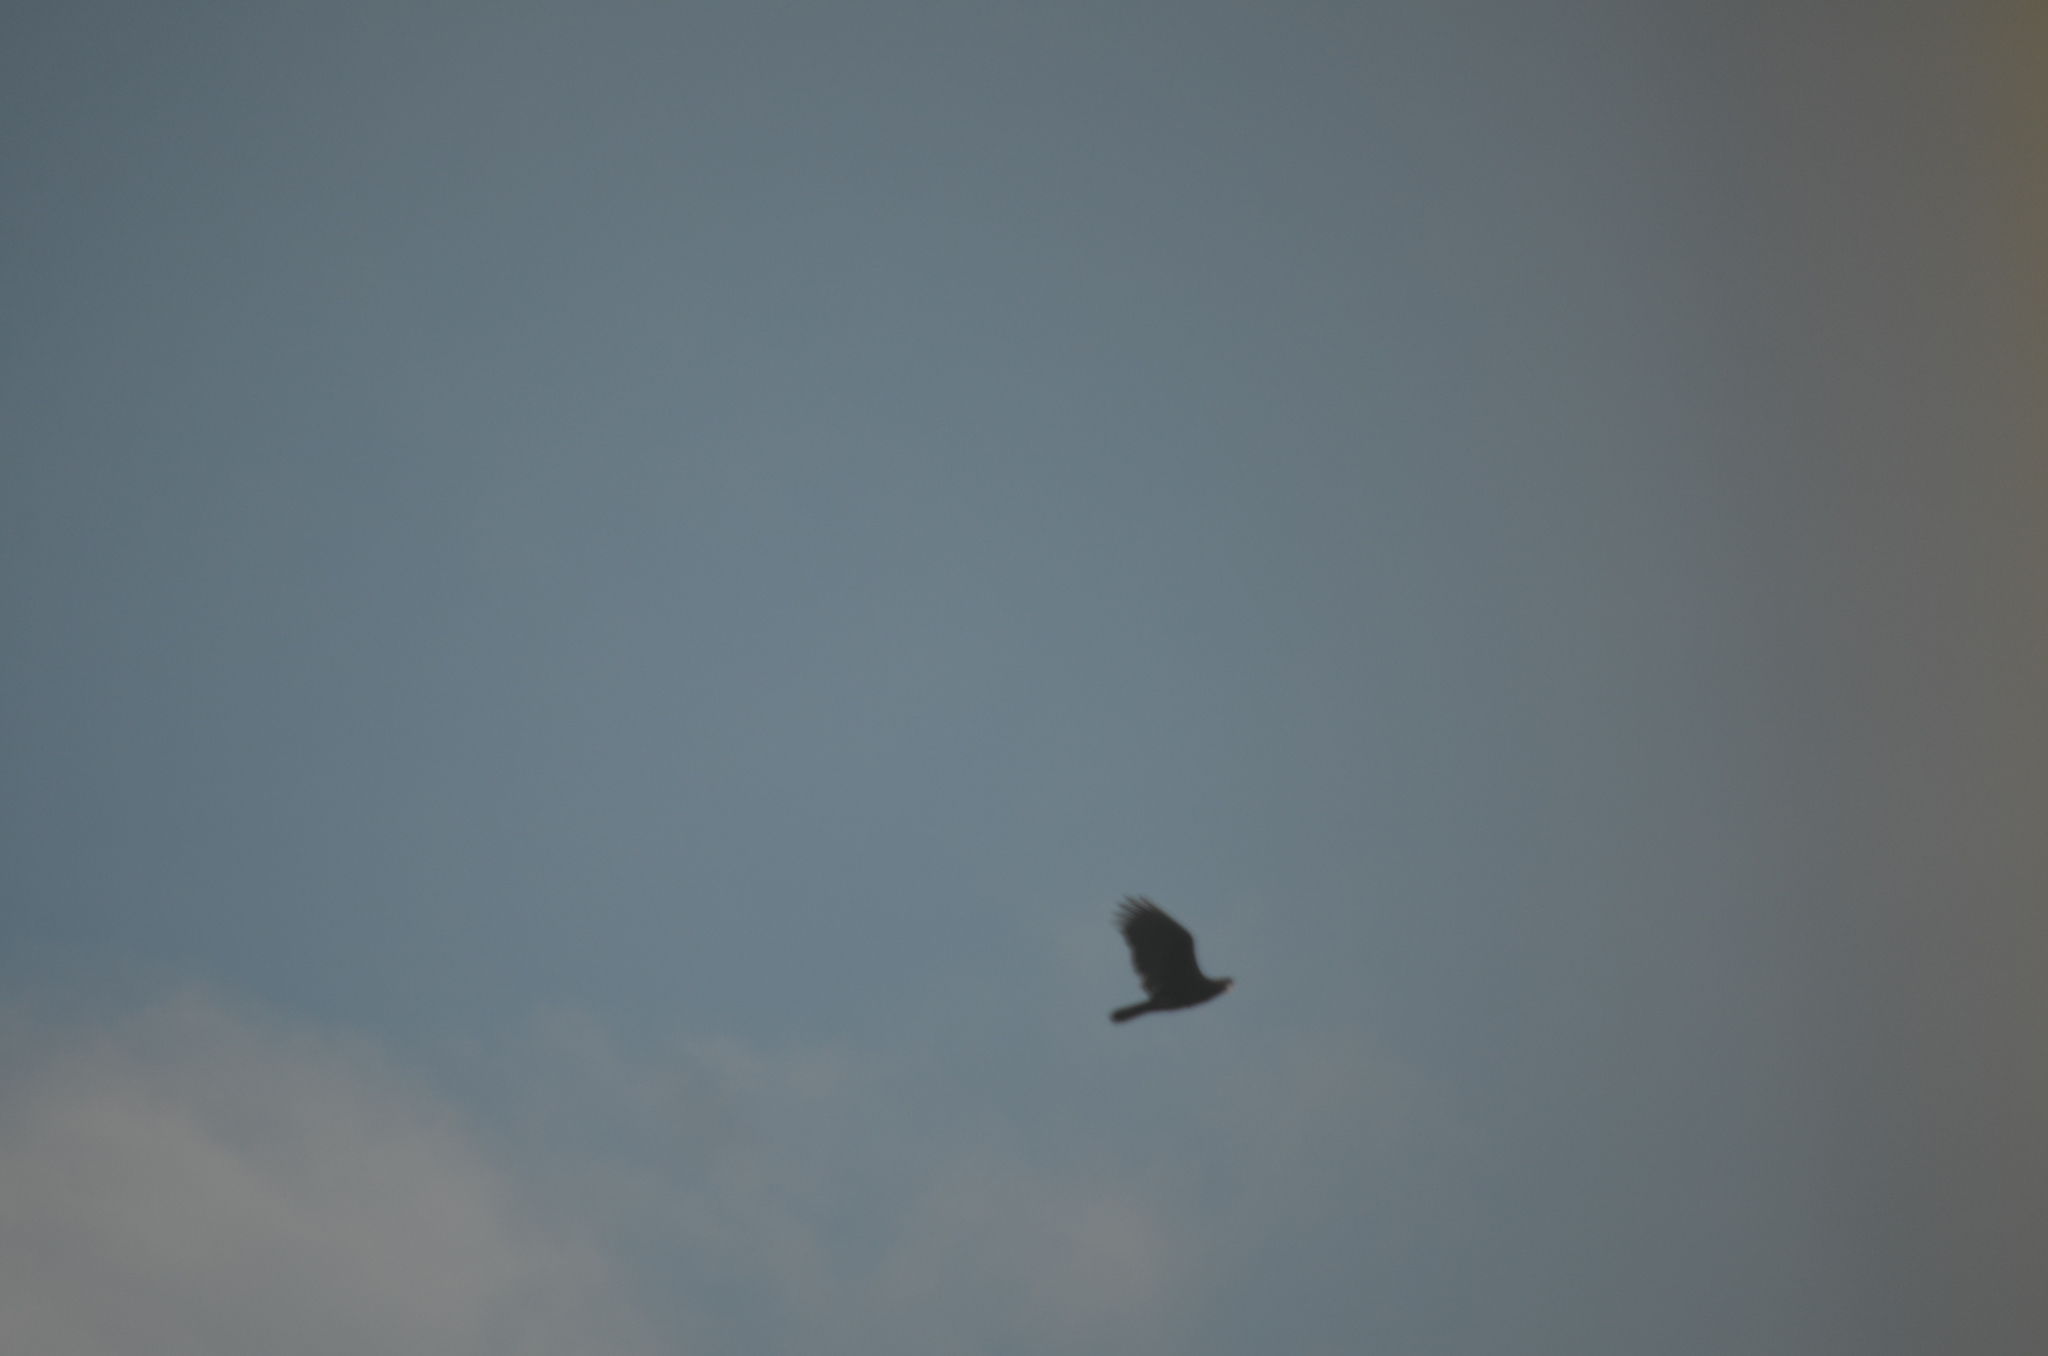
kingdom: Animalia
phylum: Chordata
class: Aves
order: Accipitriformes
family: Cathartidae
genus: Cathartes
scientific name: Cathartes aura
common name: Turkey vulture
